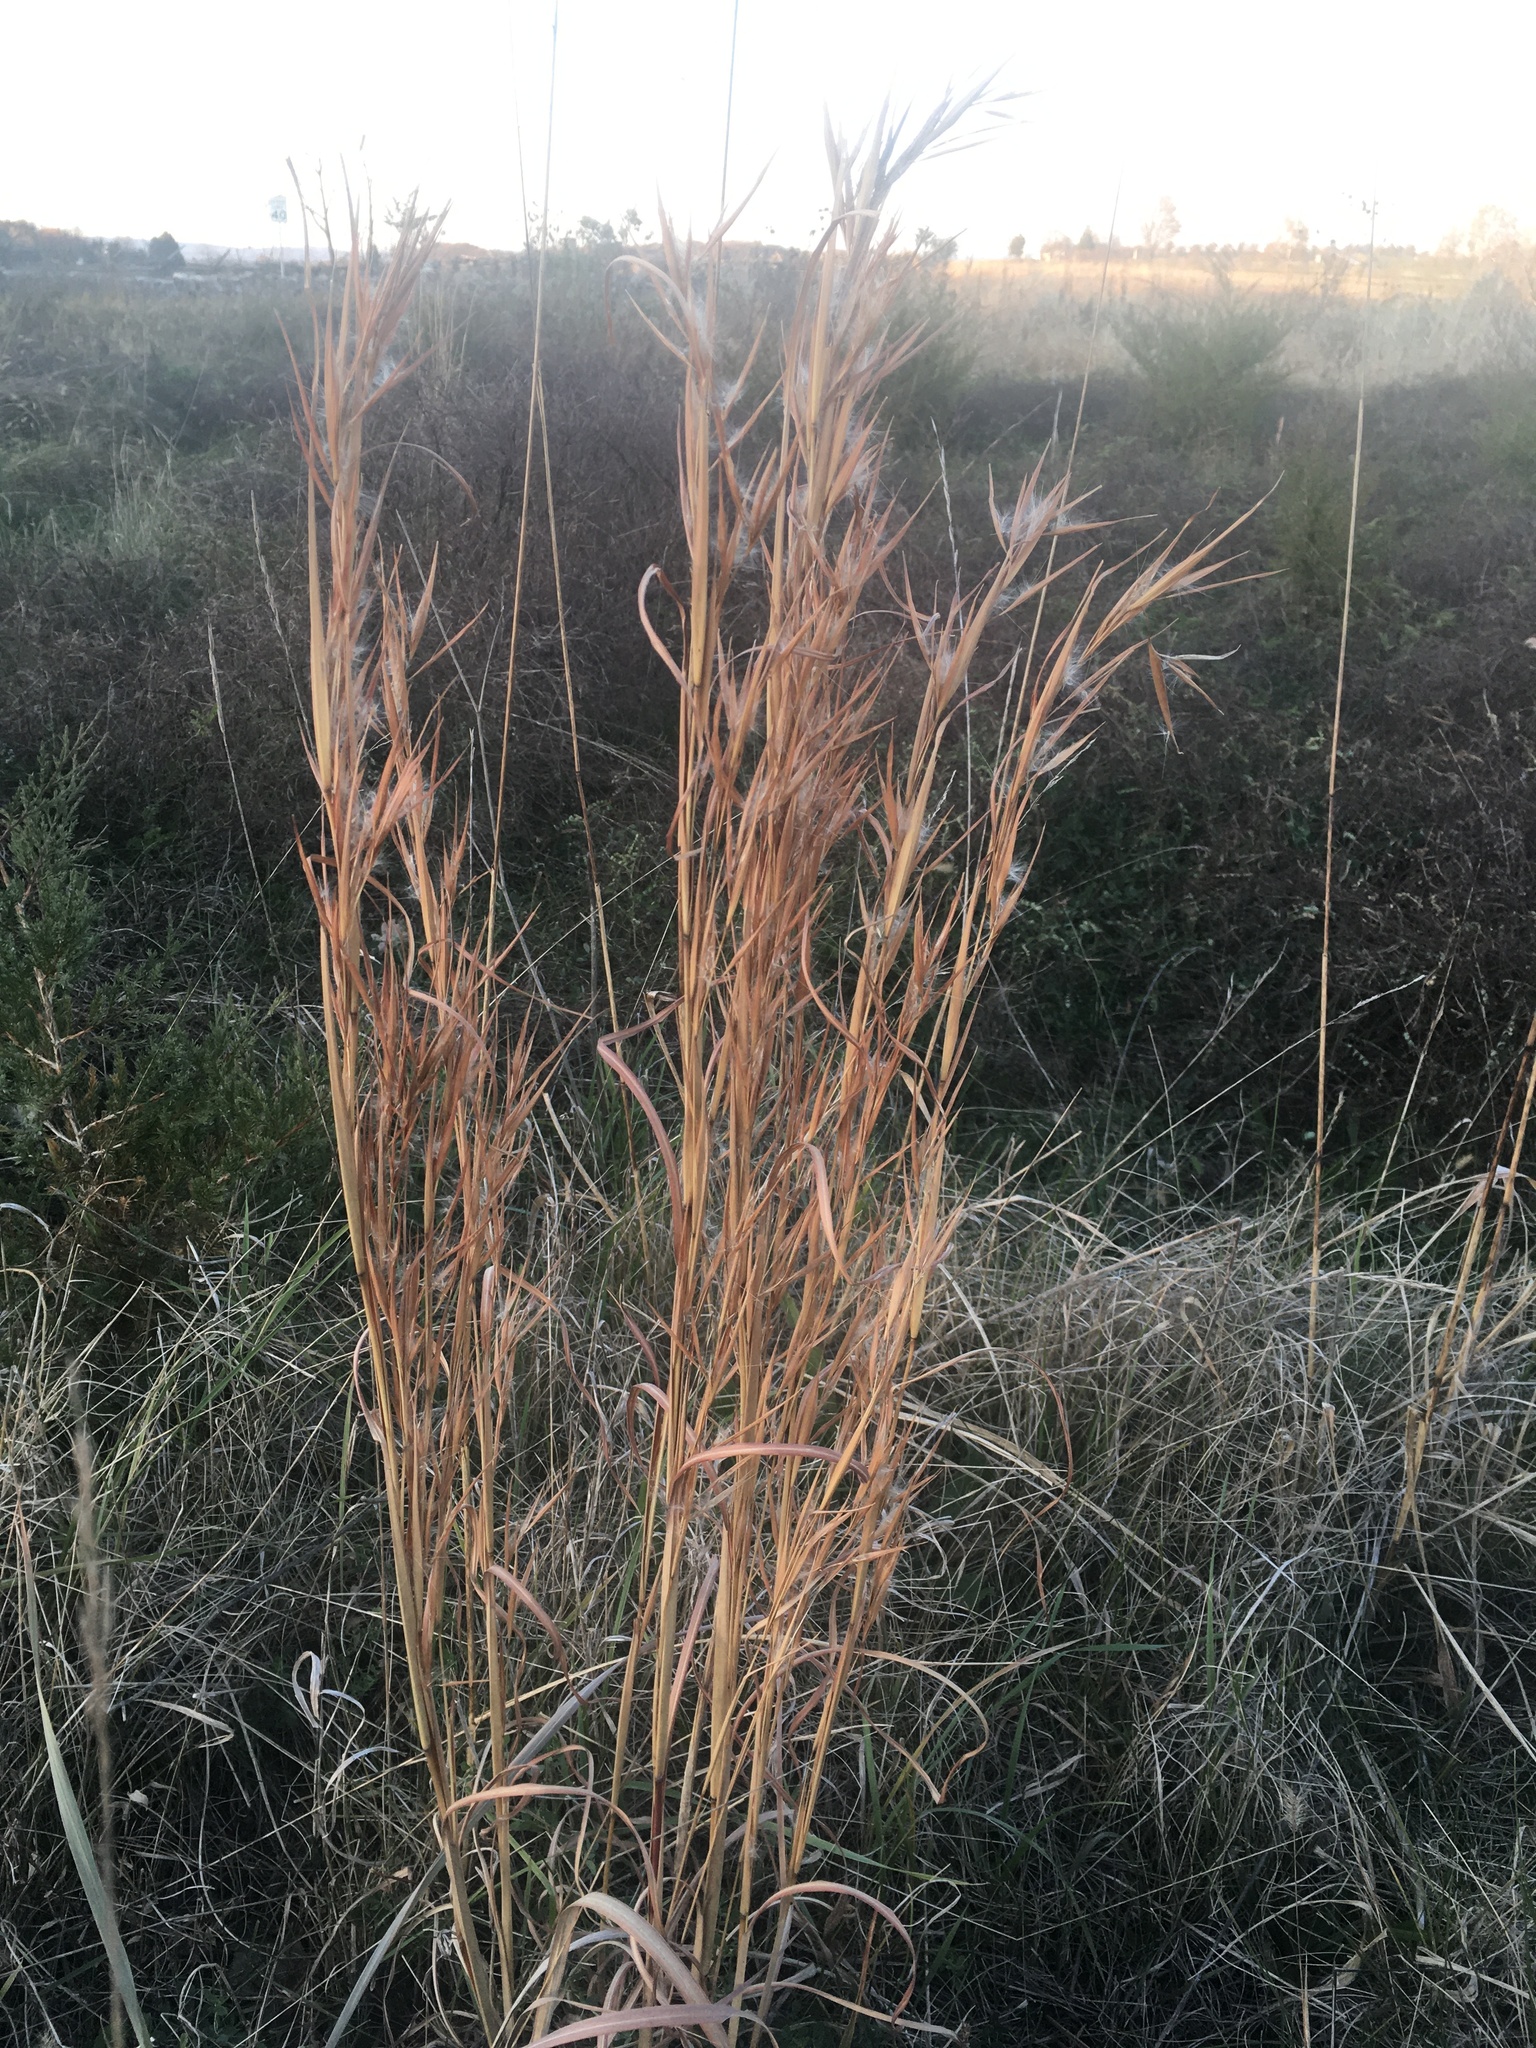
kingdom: Plantae
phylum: Tracheophyta
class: Liliopsida
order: Poales
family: Poaceae
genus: Andropogon
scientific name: Andropogon virginicus
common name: Broomsedge bluestem
